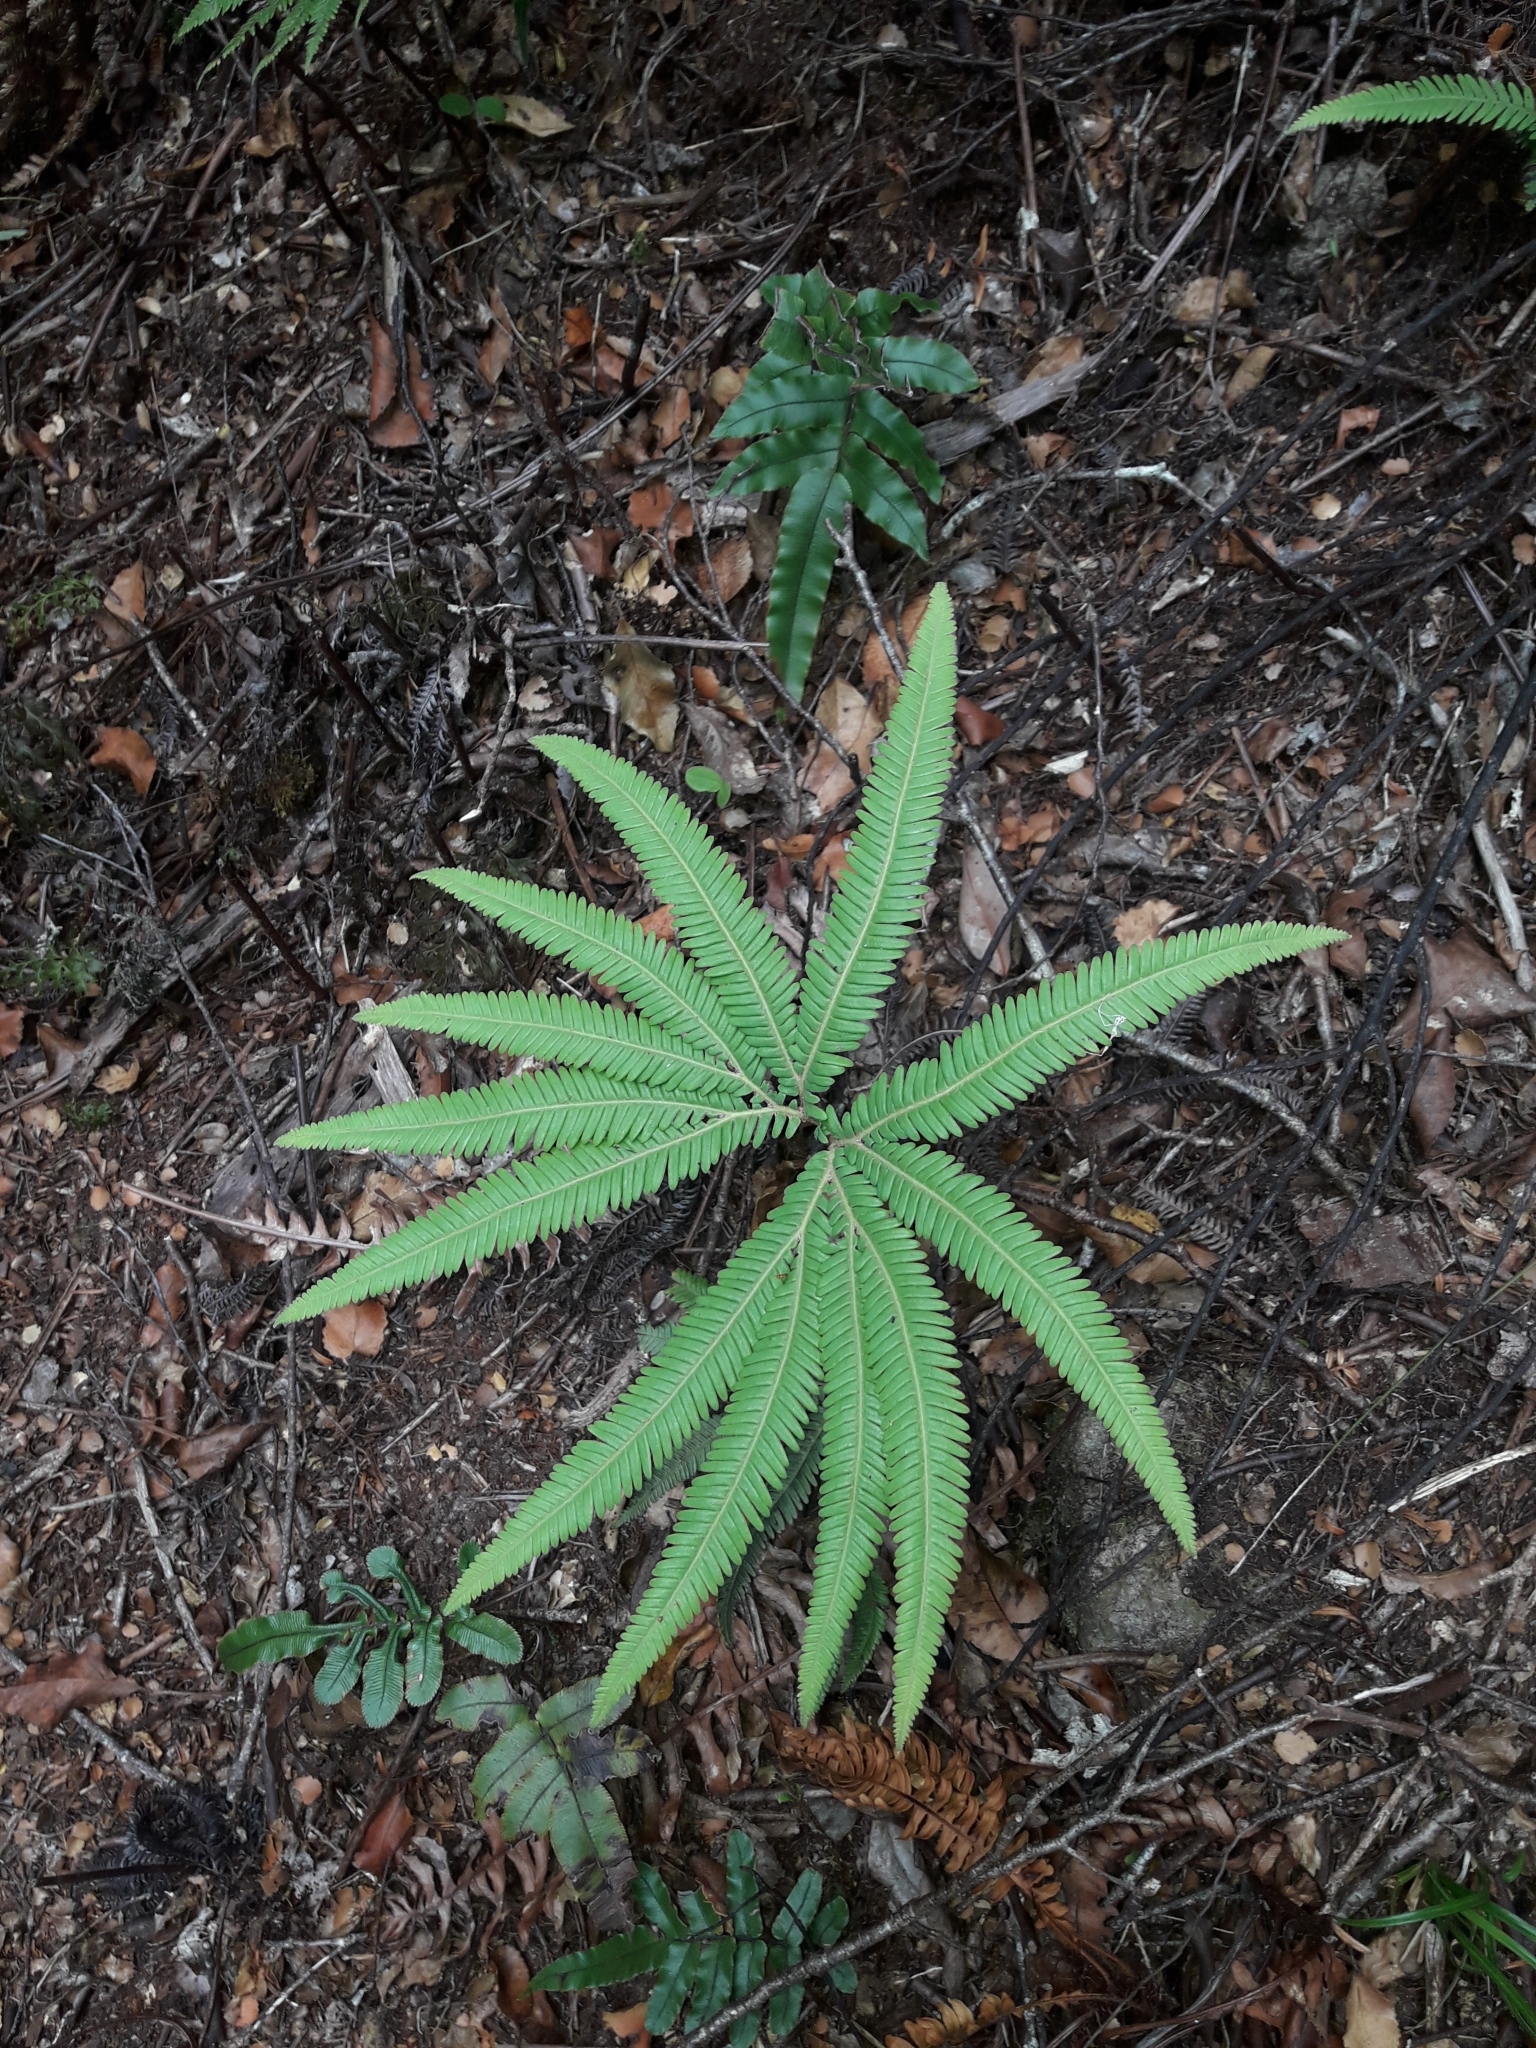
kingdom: Plantae
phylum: Tracheophyta
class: Polypodiopsida
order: Gleicheniales
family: Gleicheniaceae
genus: Sticherus
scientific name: Sticherus cunninghamii
